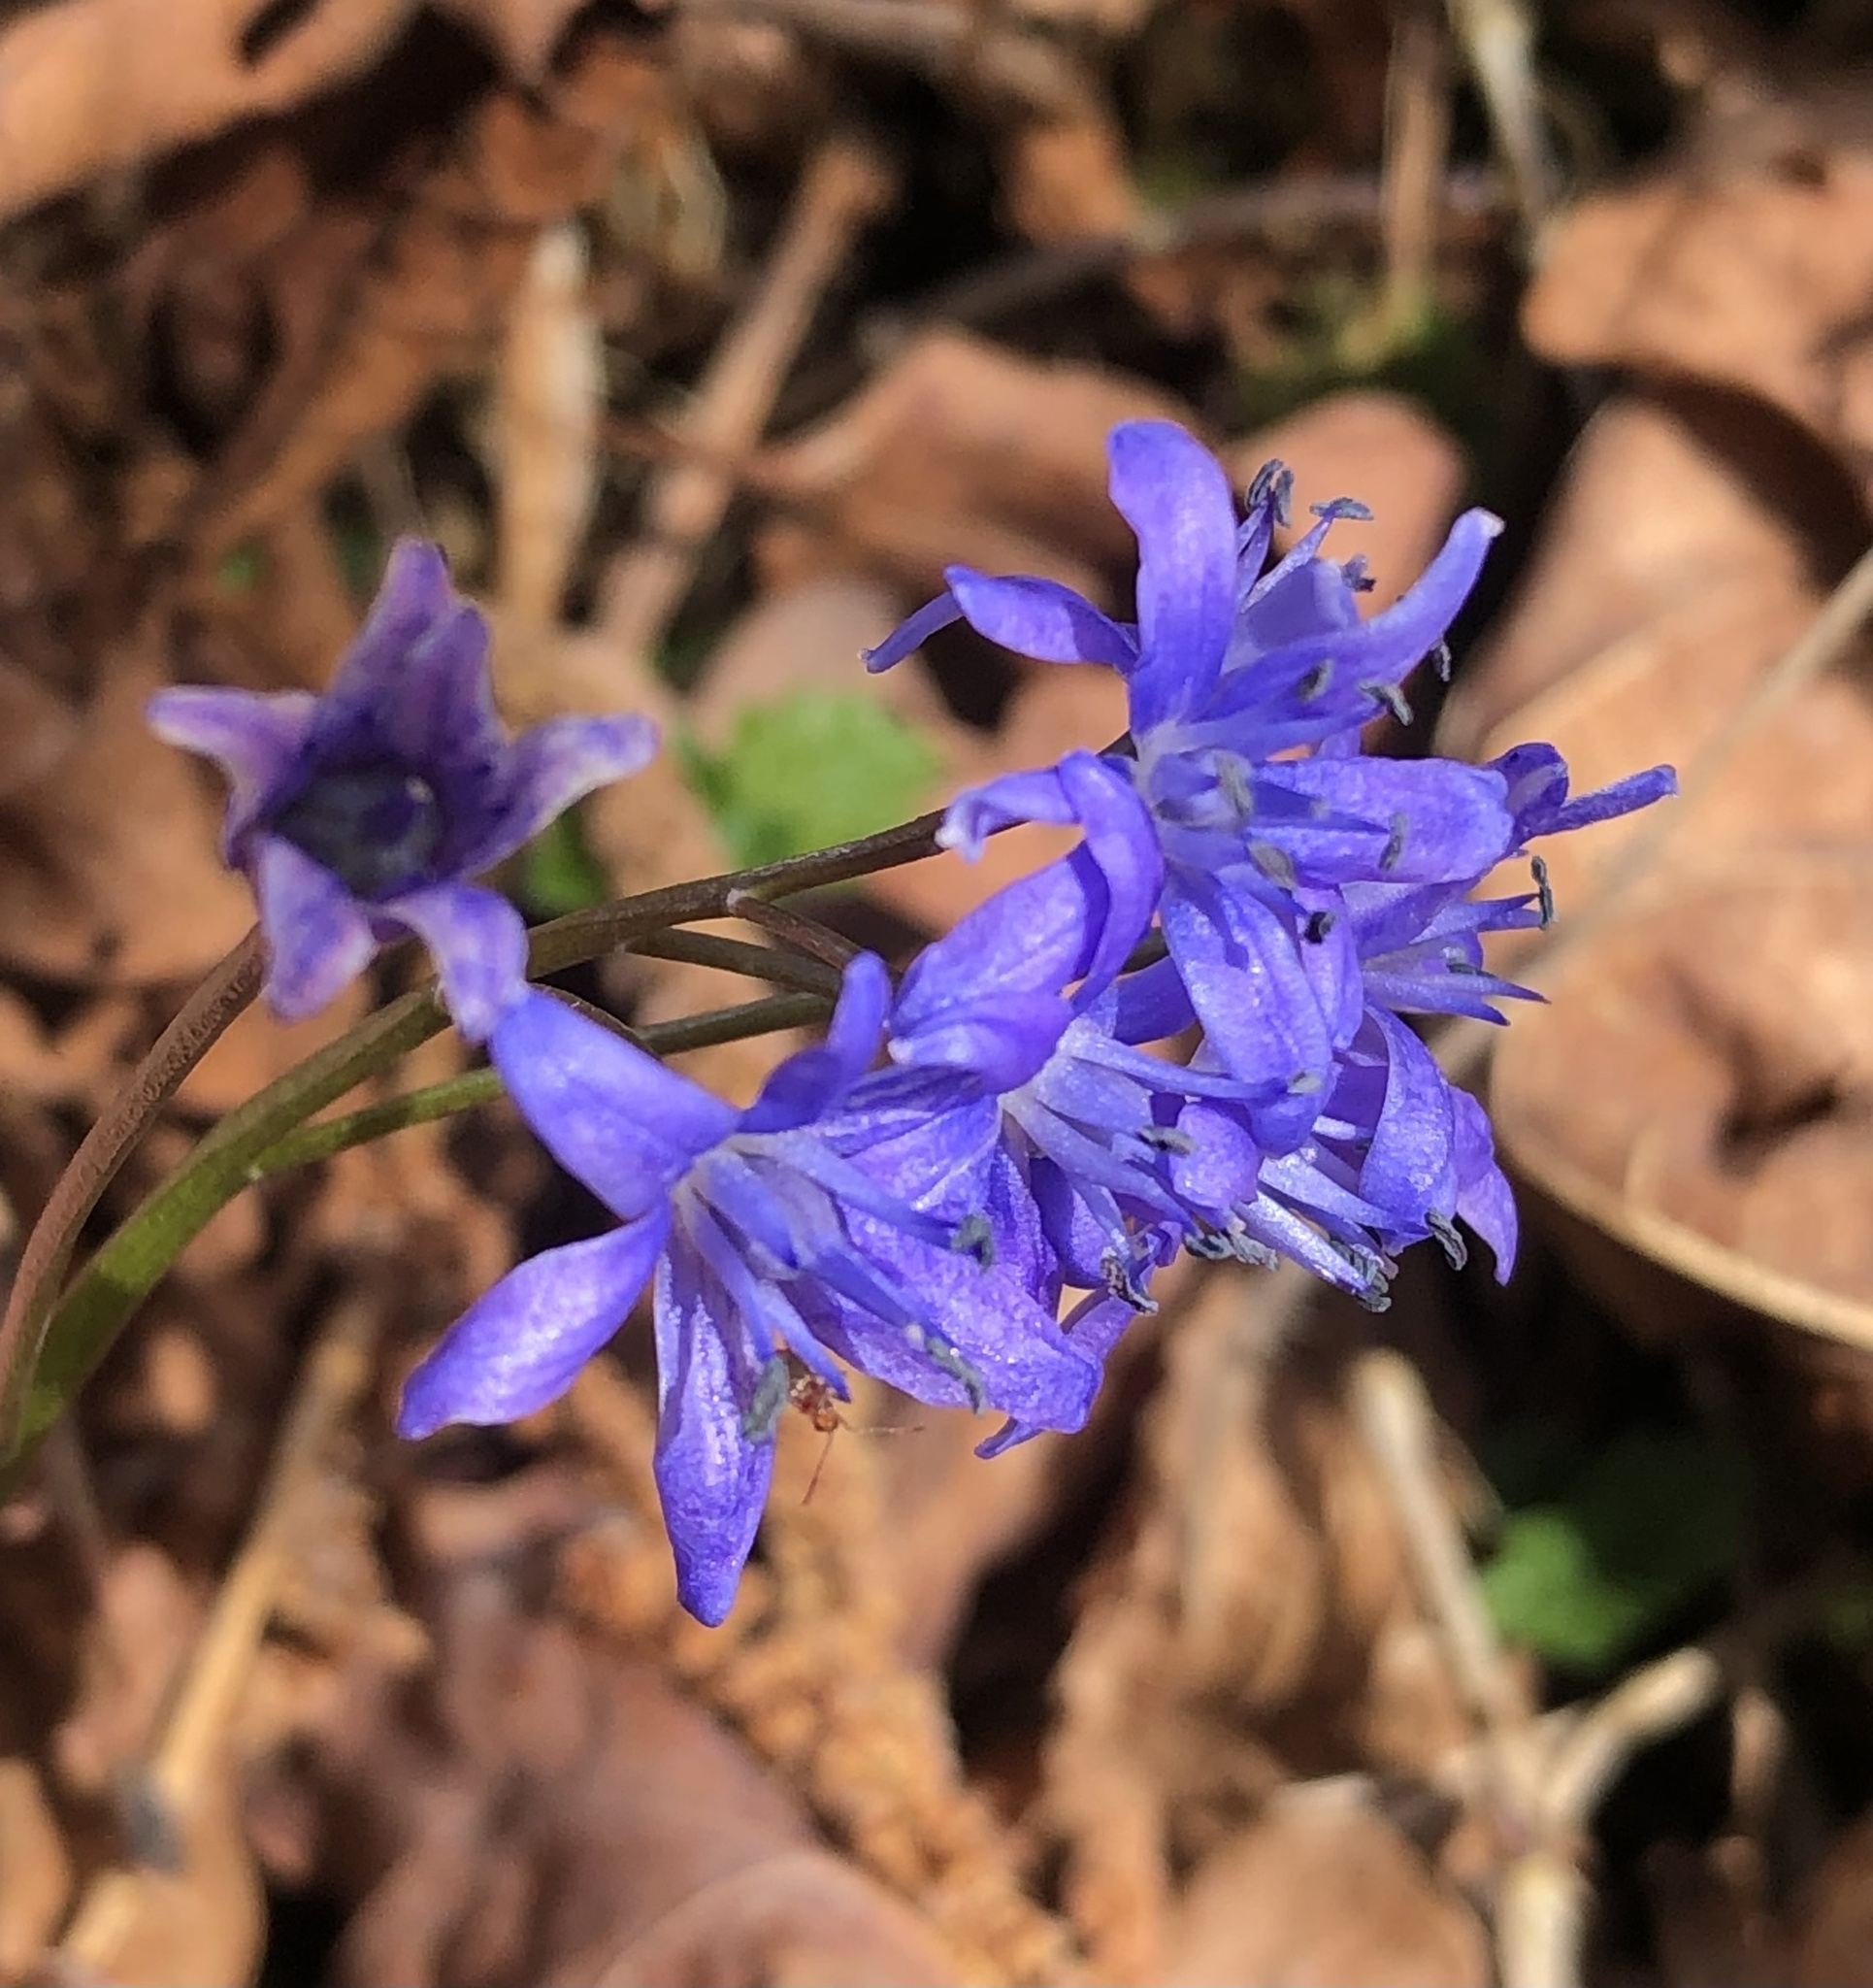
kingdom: Plantae
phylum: Tracheophyta
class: Liliopsida
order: Asparagales
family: Asparagaceae
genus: Scilla
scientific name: Scilla bifolia
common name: Alpine squill
